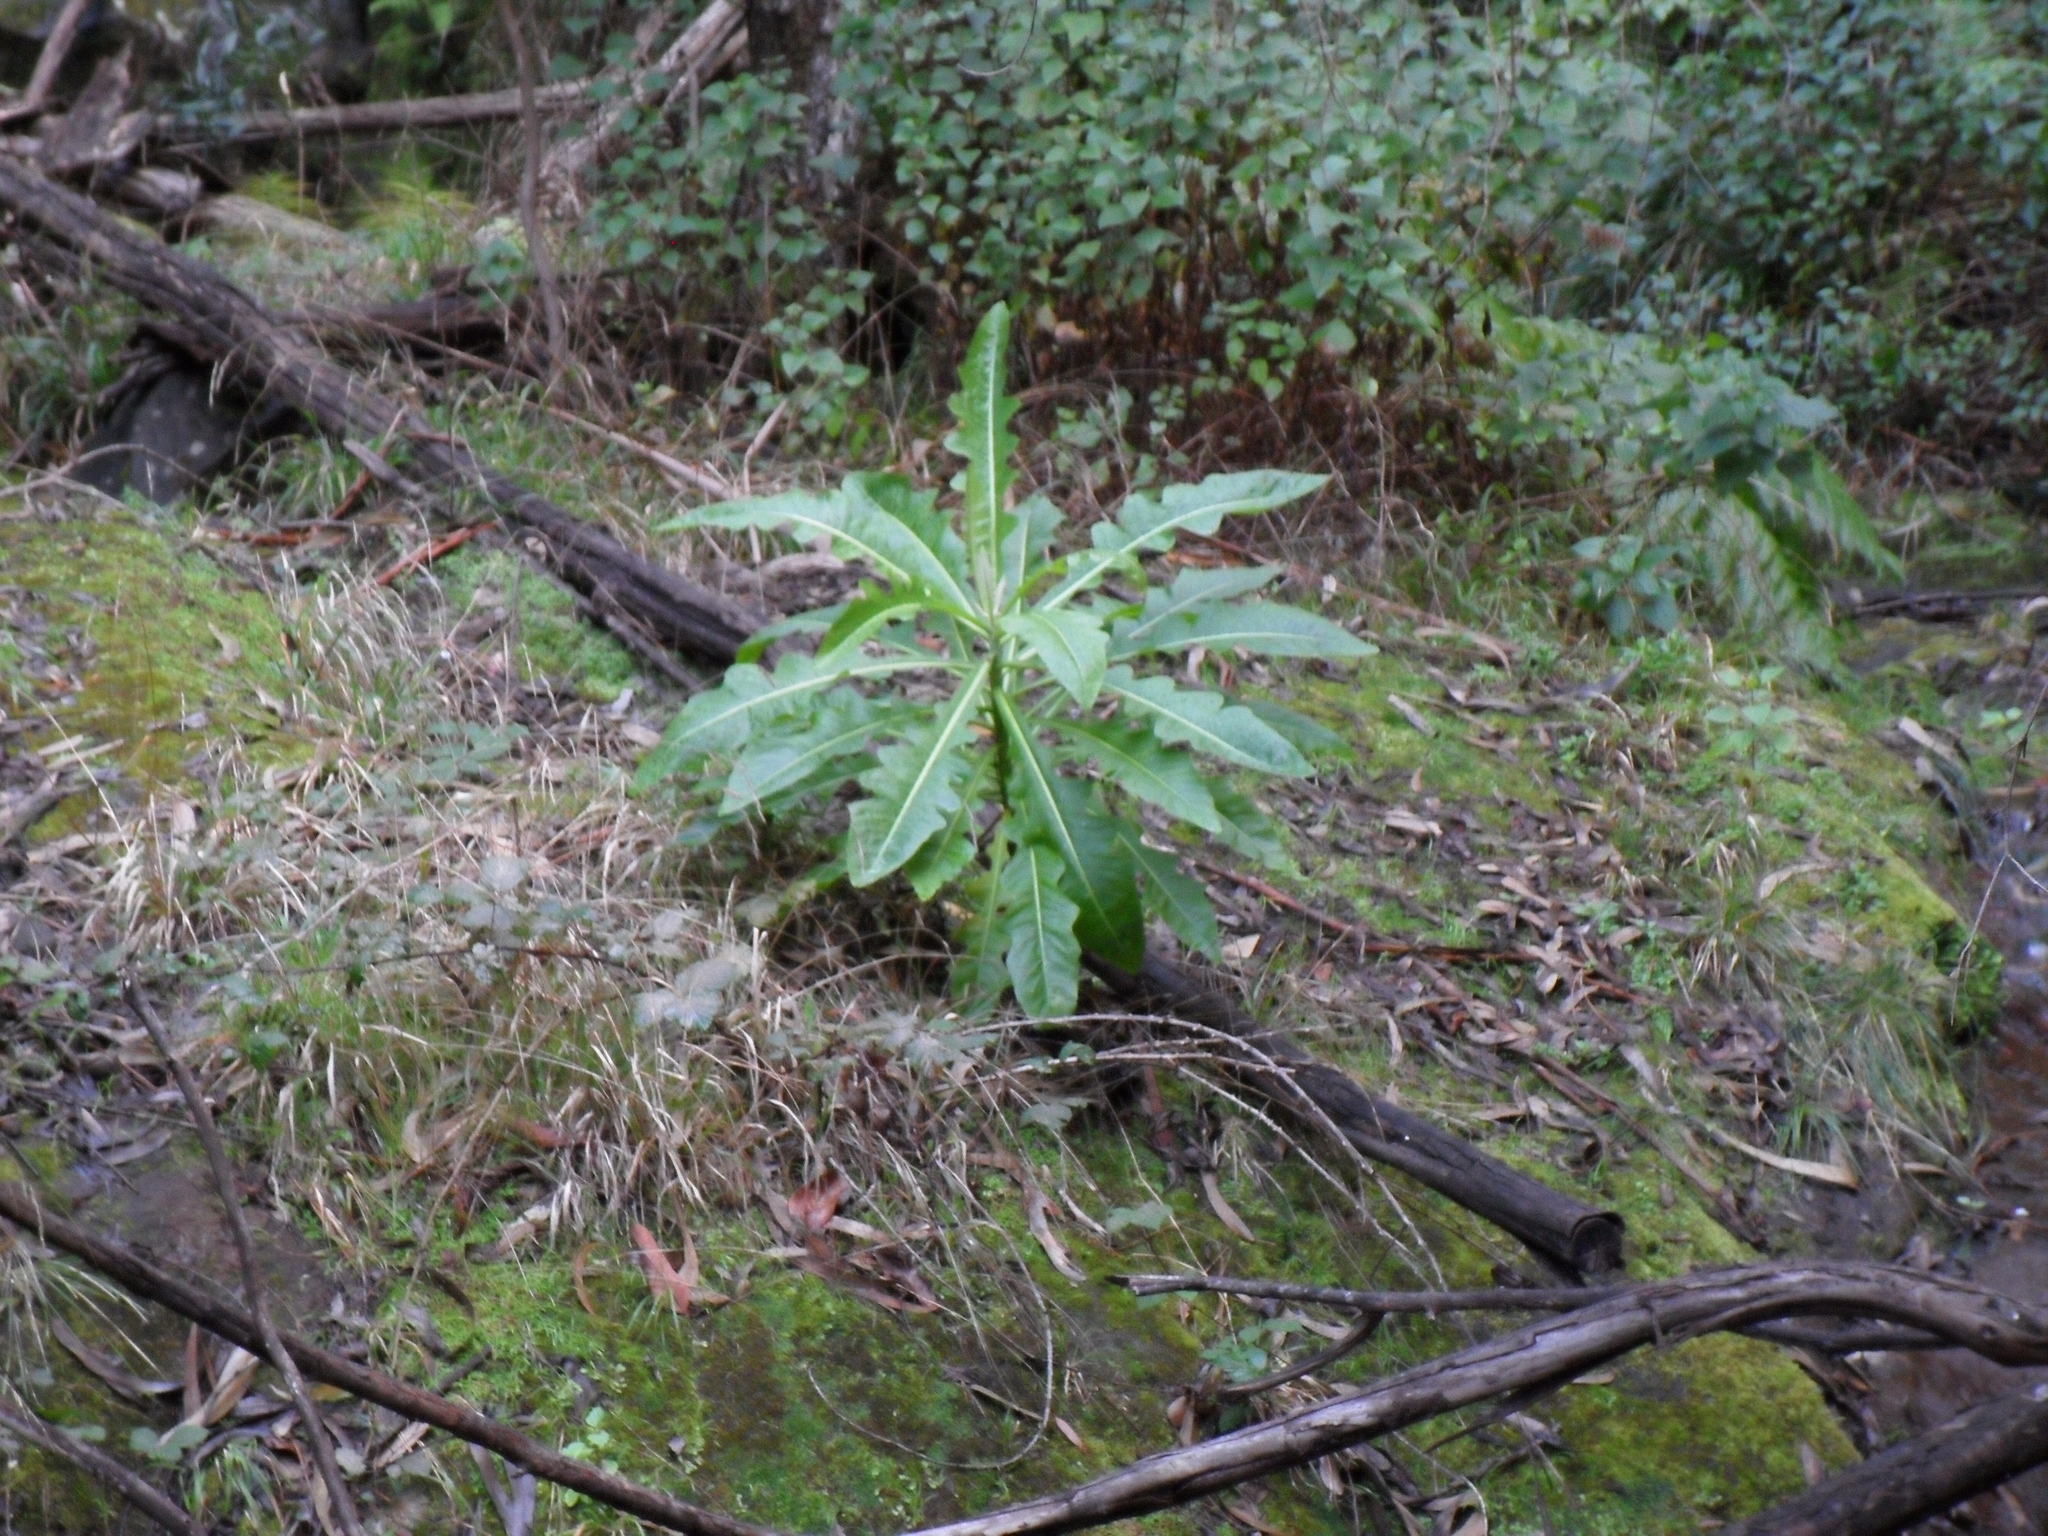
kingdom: Plantae
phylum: Tracheophyta
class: Magnoliopsida
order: Asterales
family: Asteraceae
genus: Sonchus
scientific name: Sonchus fruticosus
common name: Shrubby sow-thistle
